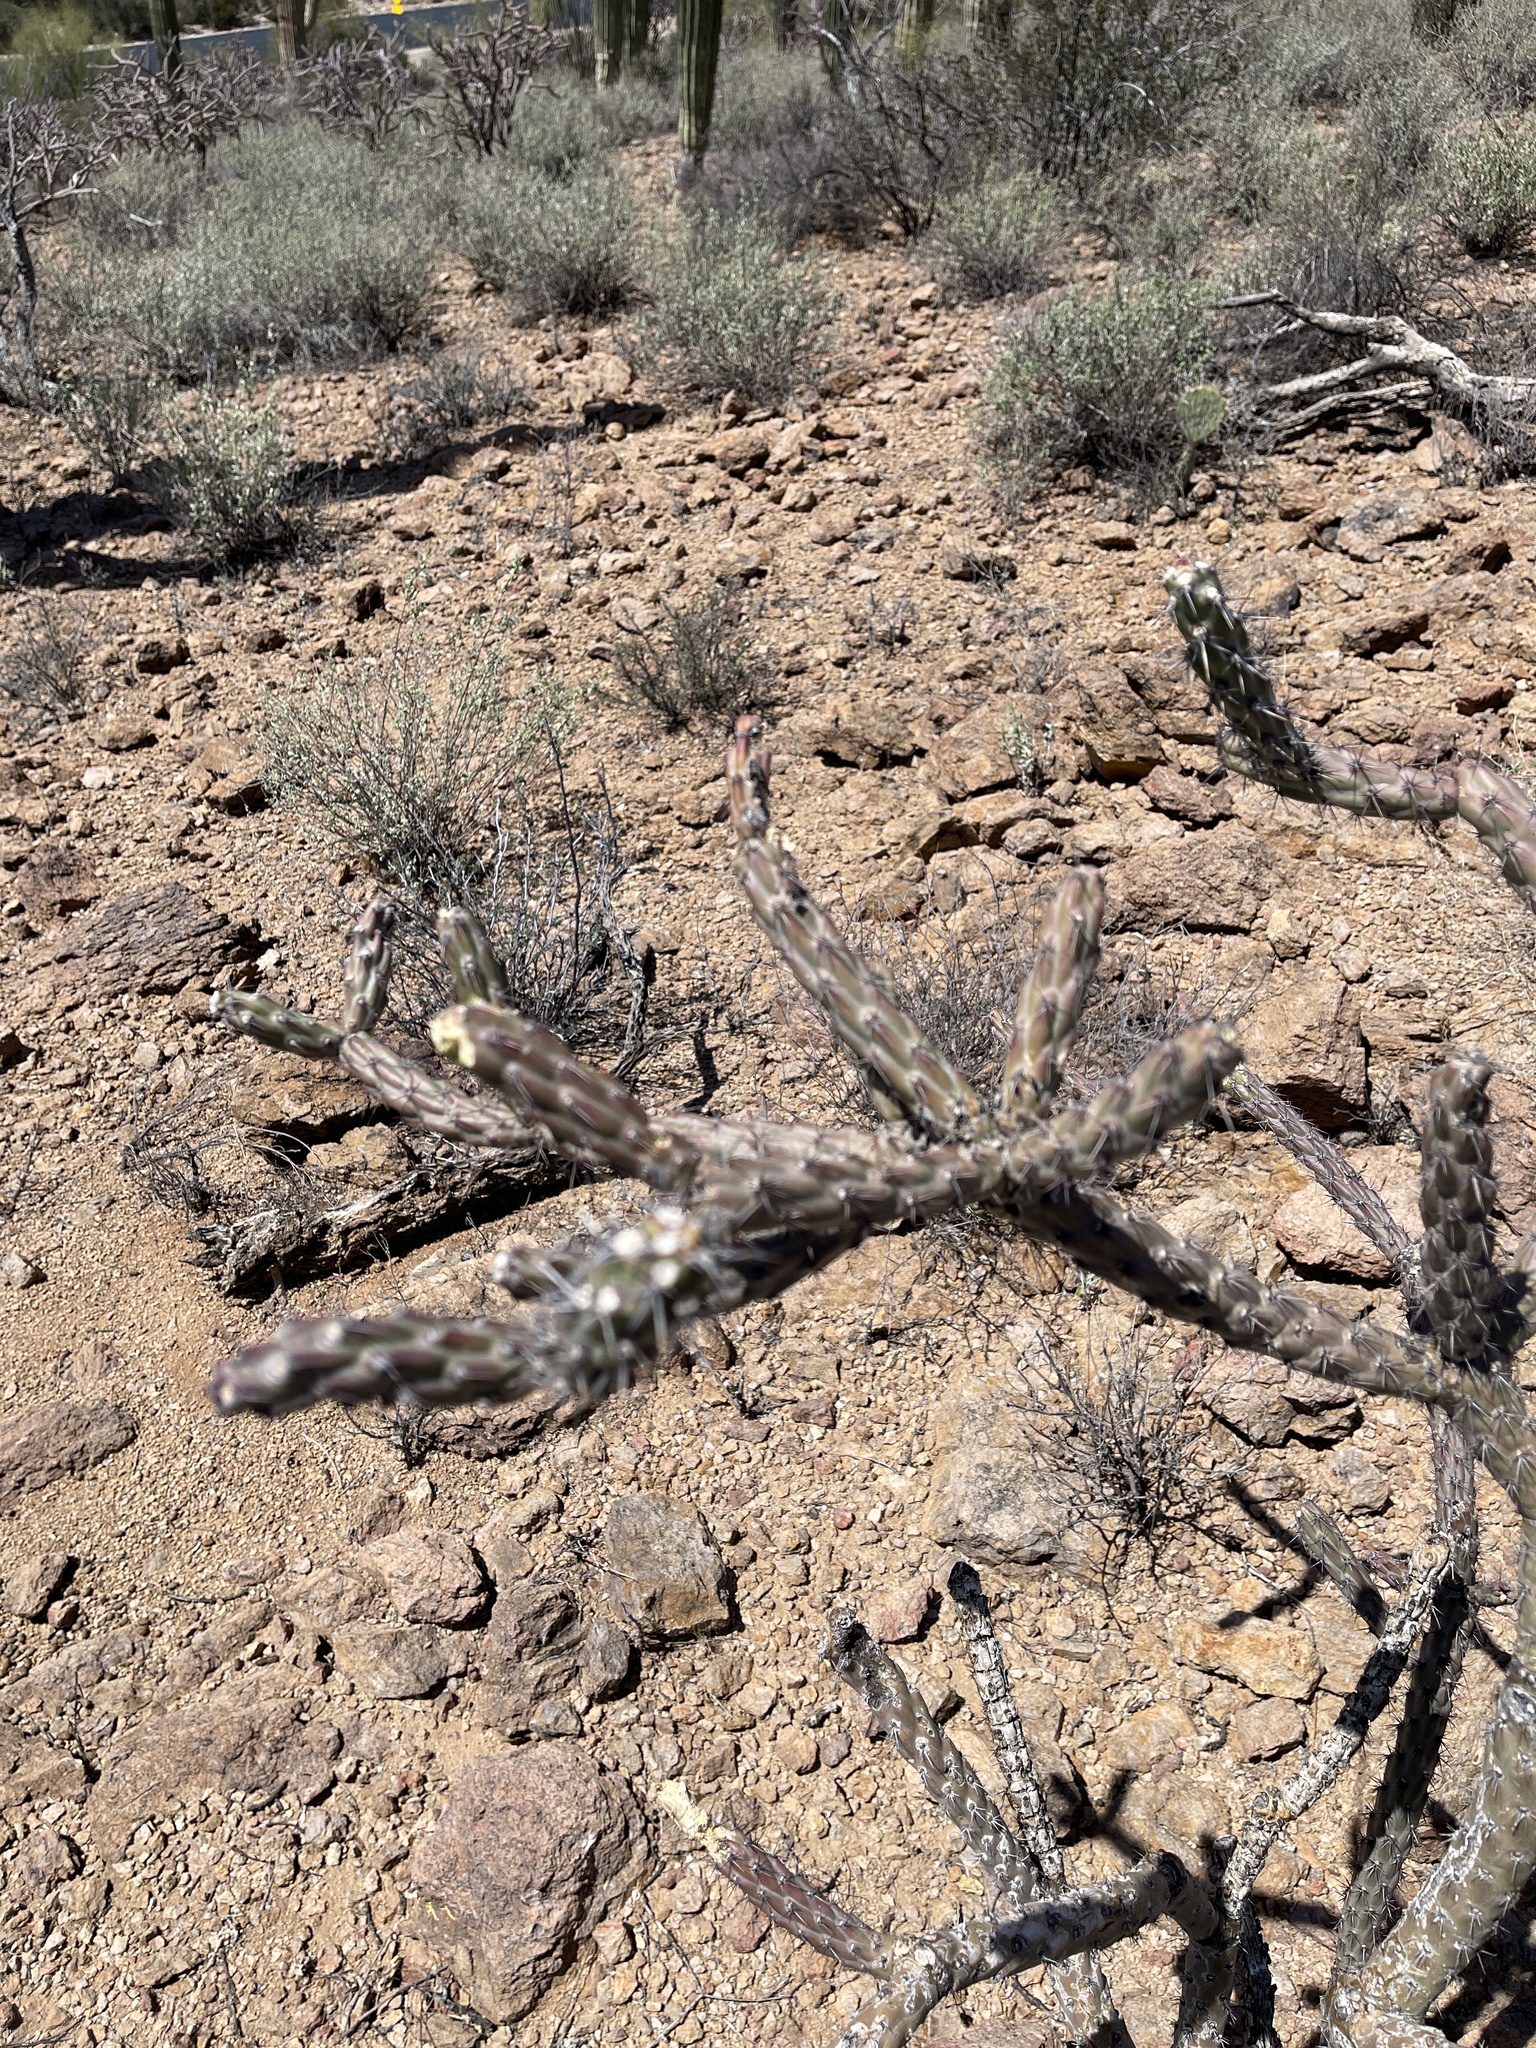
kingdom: Plantae
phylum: Tracheophyta
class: Magnoliopsida
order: Caryophyllales
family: Cactaceae
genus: Cylindropuntia
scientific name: Cylindropuntia thurberi
